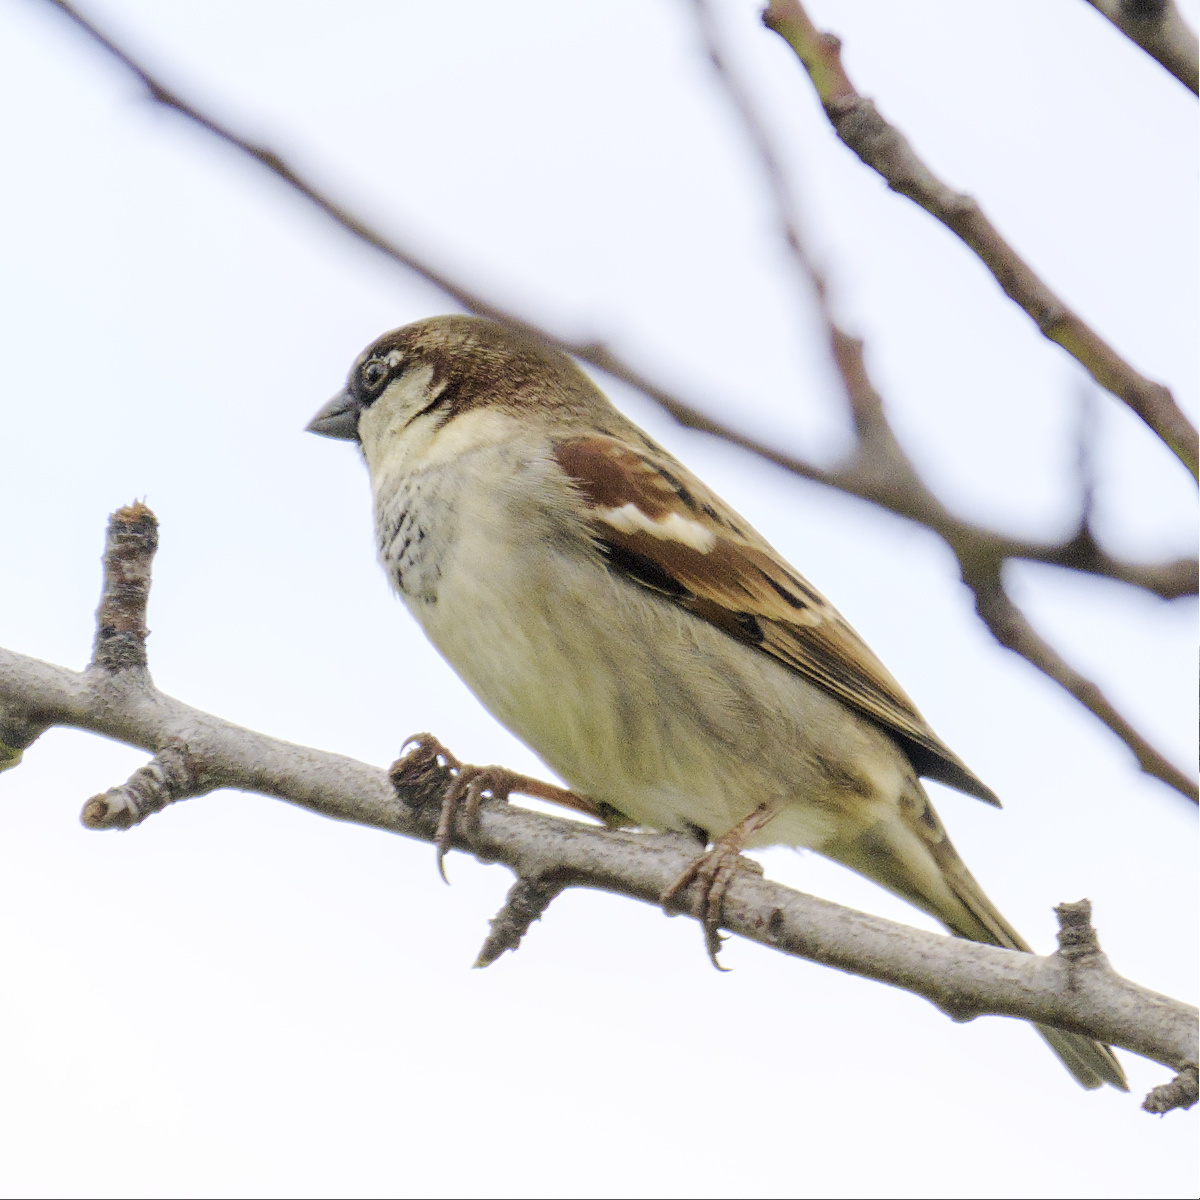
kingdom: Animalia
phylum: Chordata
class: Aves
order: Passeriformes
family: Passeridae
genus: Passer
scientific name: Passer domesticus
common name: House sparrow
